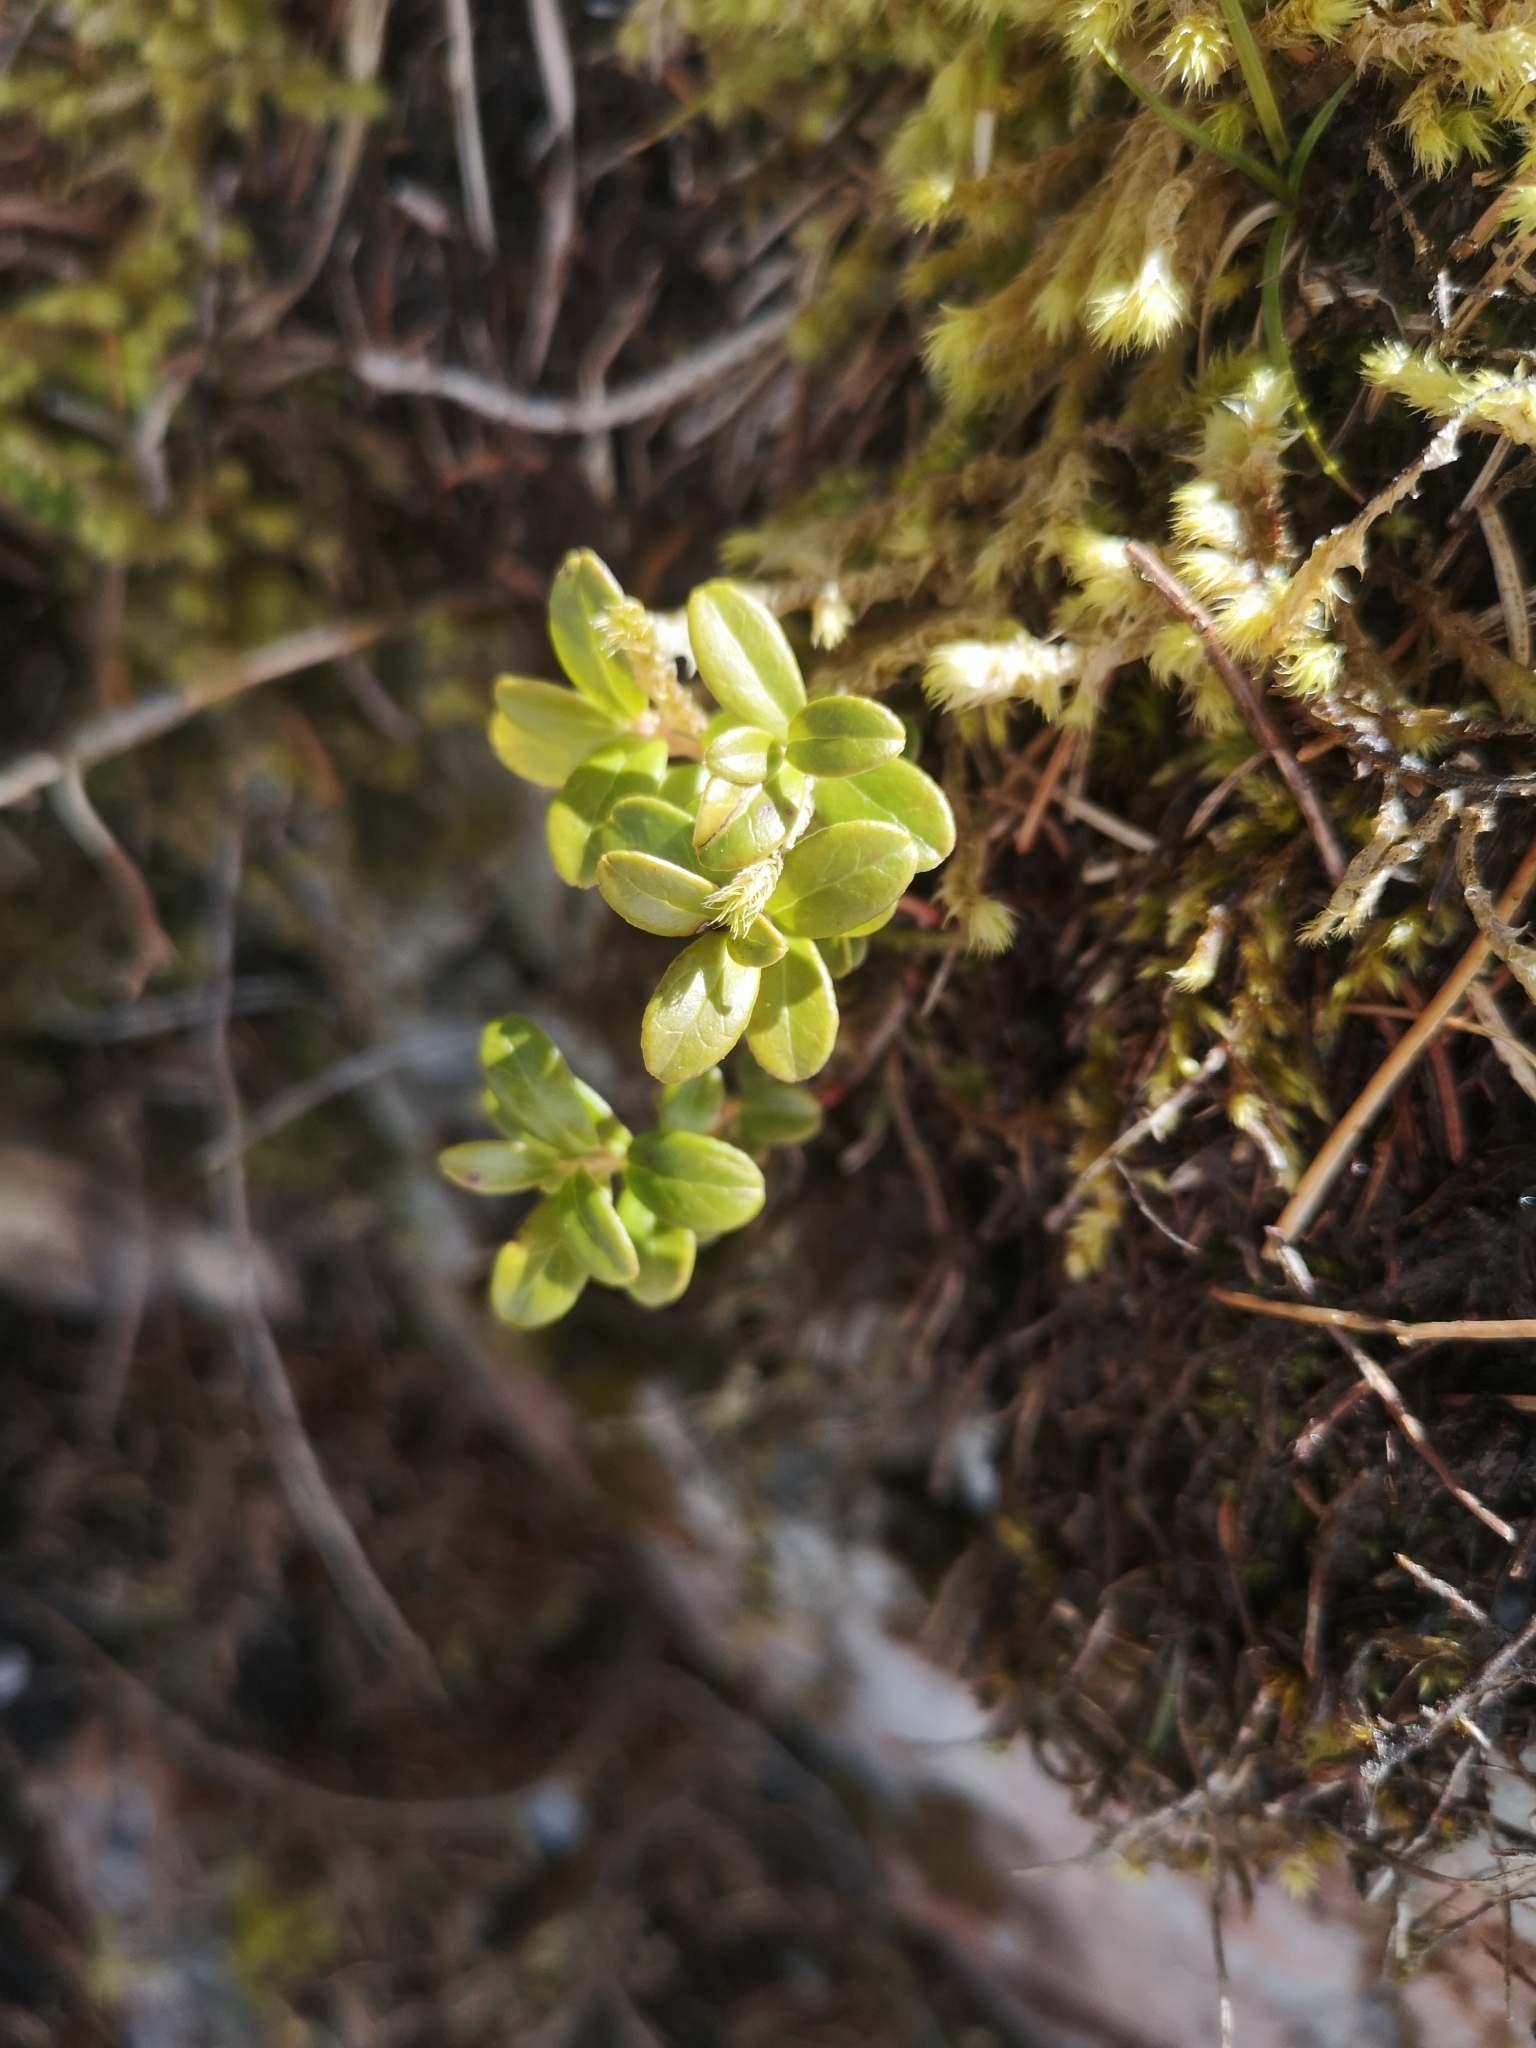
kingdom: Plantae
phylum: Tracheophyta
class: Magnoliopsida
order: Ericales
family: Ericaceae
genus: Vaccinium
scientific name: Vaccinium vitis-idaea
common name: Cowberry
